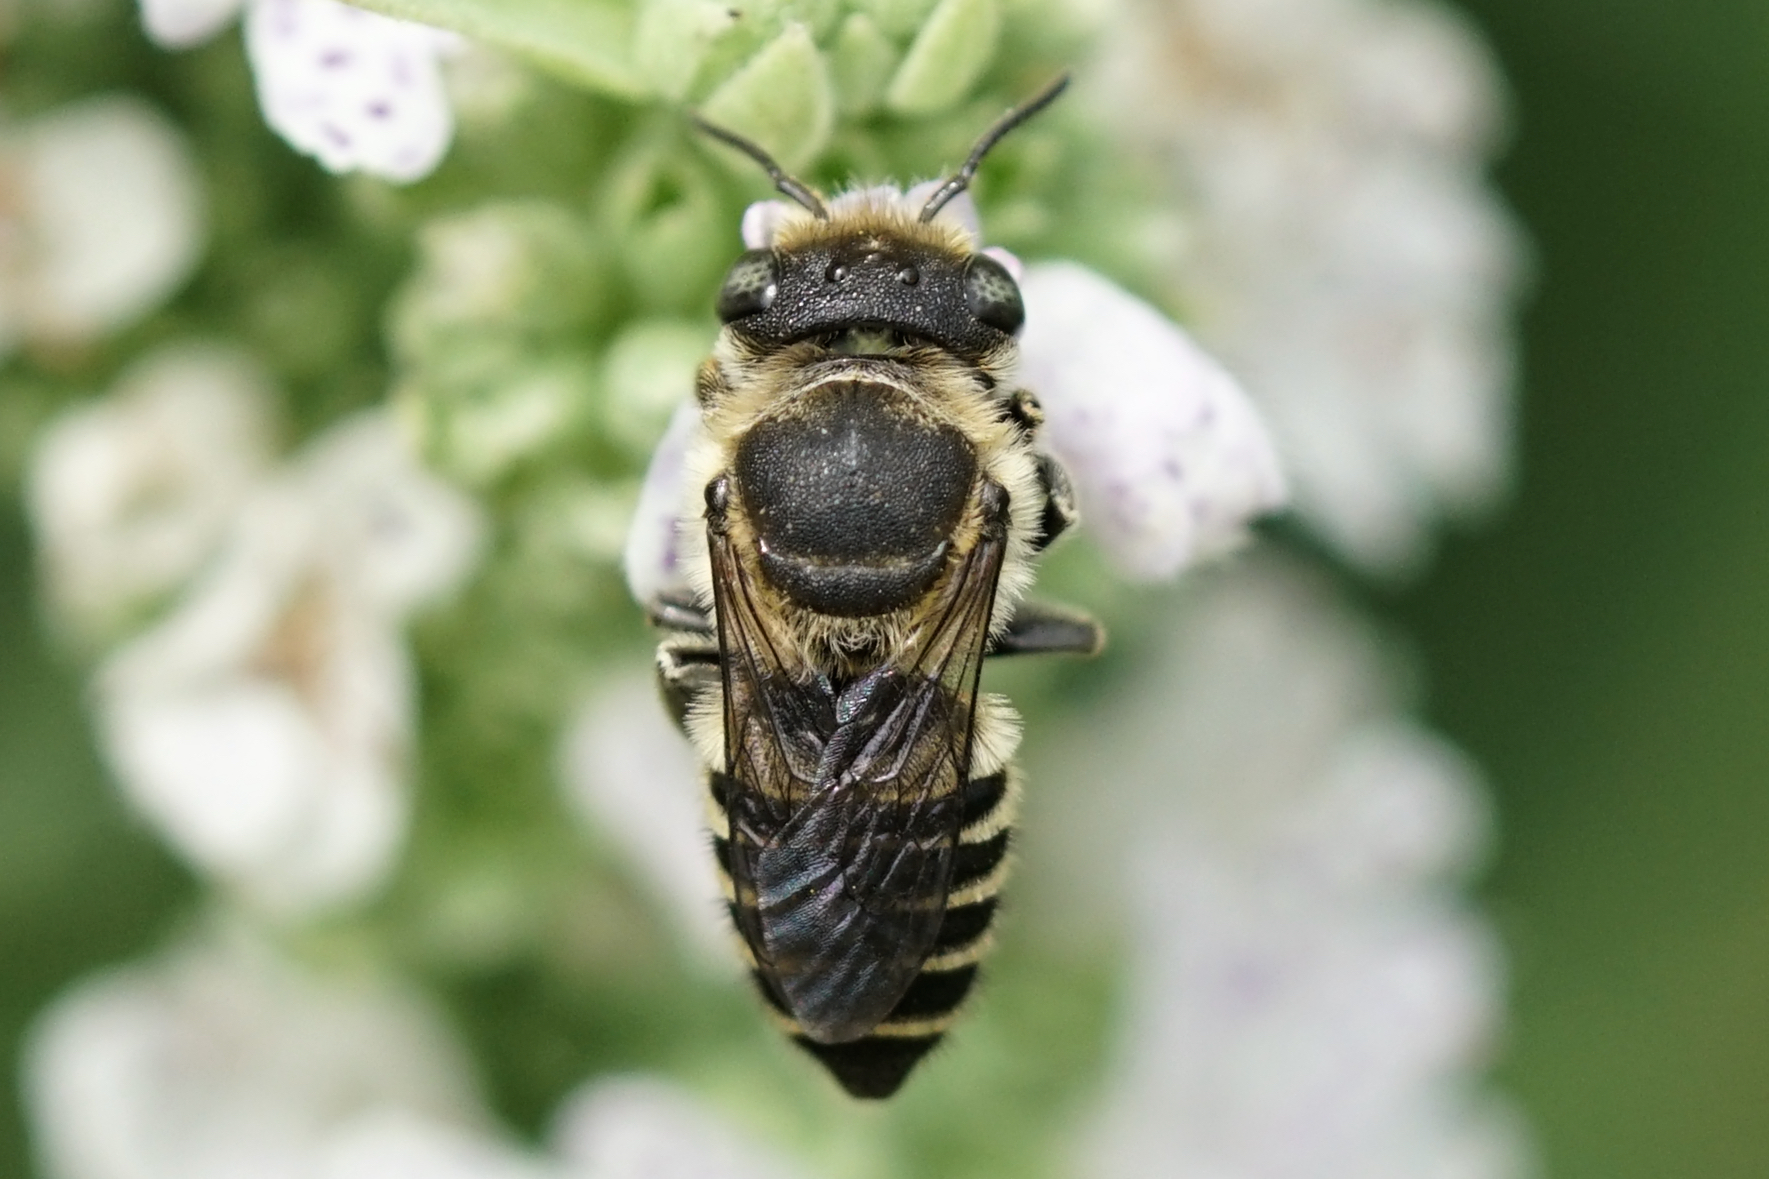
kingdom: Animalia
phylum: Arthropoda
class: Insecta
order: Hymenoptera
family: Megachilidae
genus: Megachile
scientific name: Megachile rotundata
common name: Alfalfa leafcutting bee
